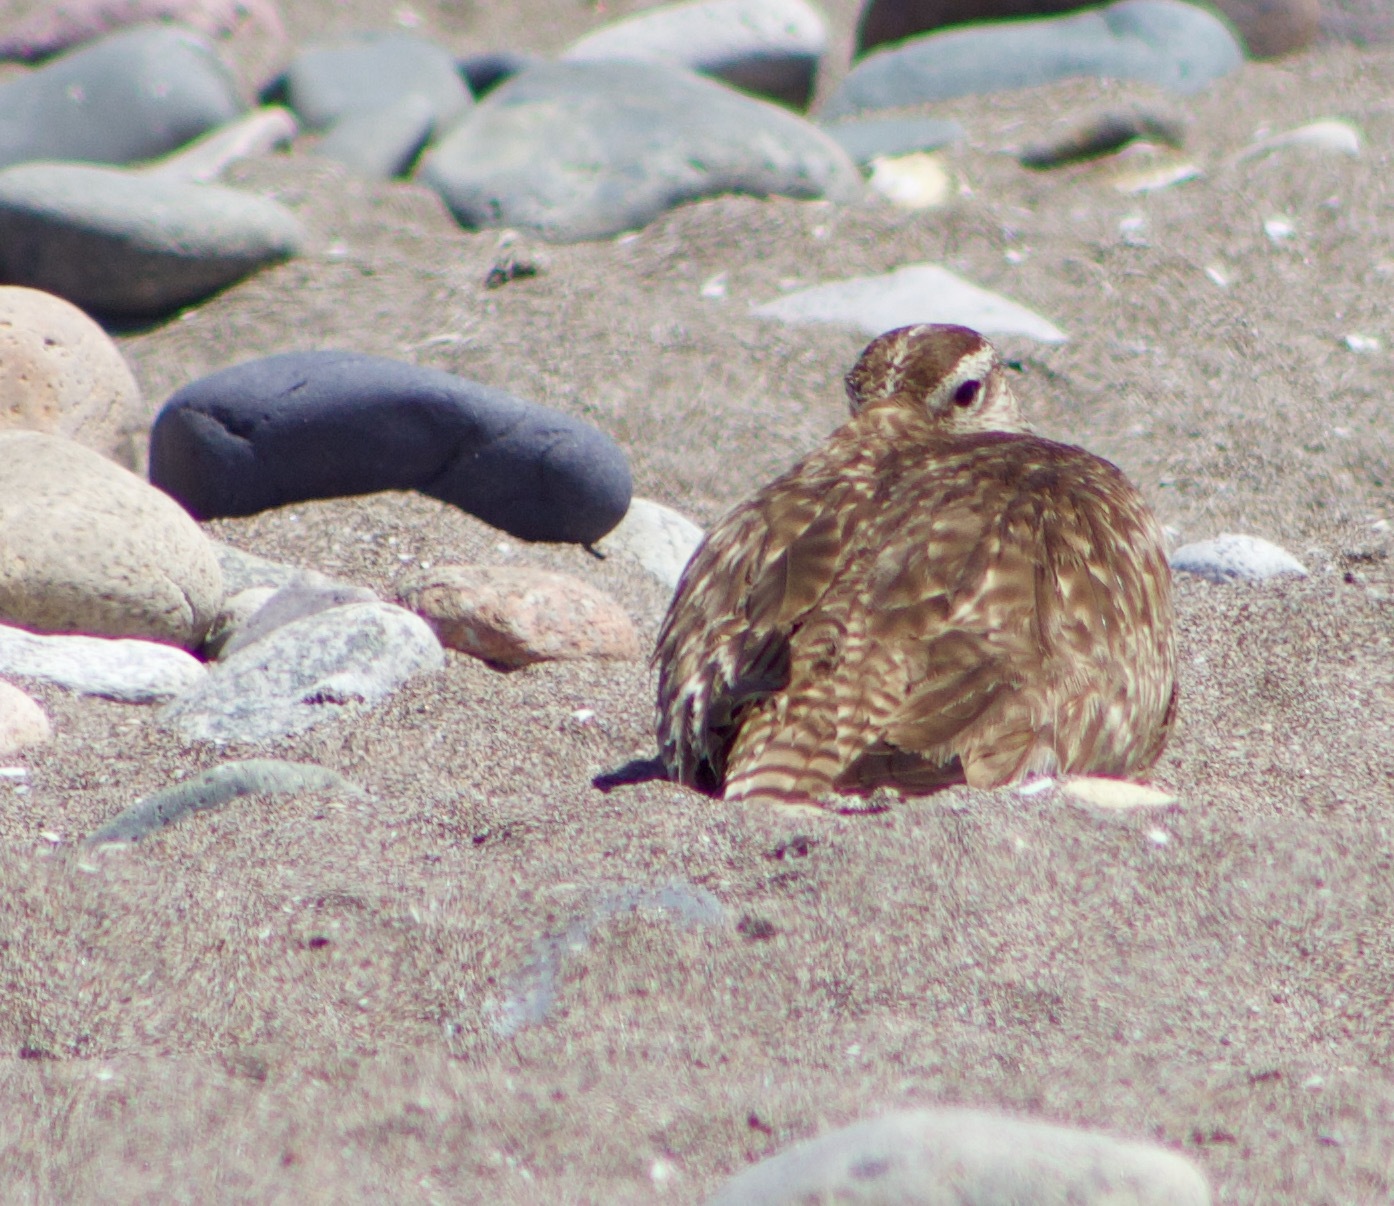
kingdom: Animalia
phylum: Chordata
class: Aves
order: Charadriiformes
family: Scolopacidae
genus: Numenius
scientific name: Numenius phaeopus
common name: Whimbrel
